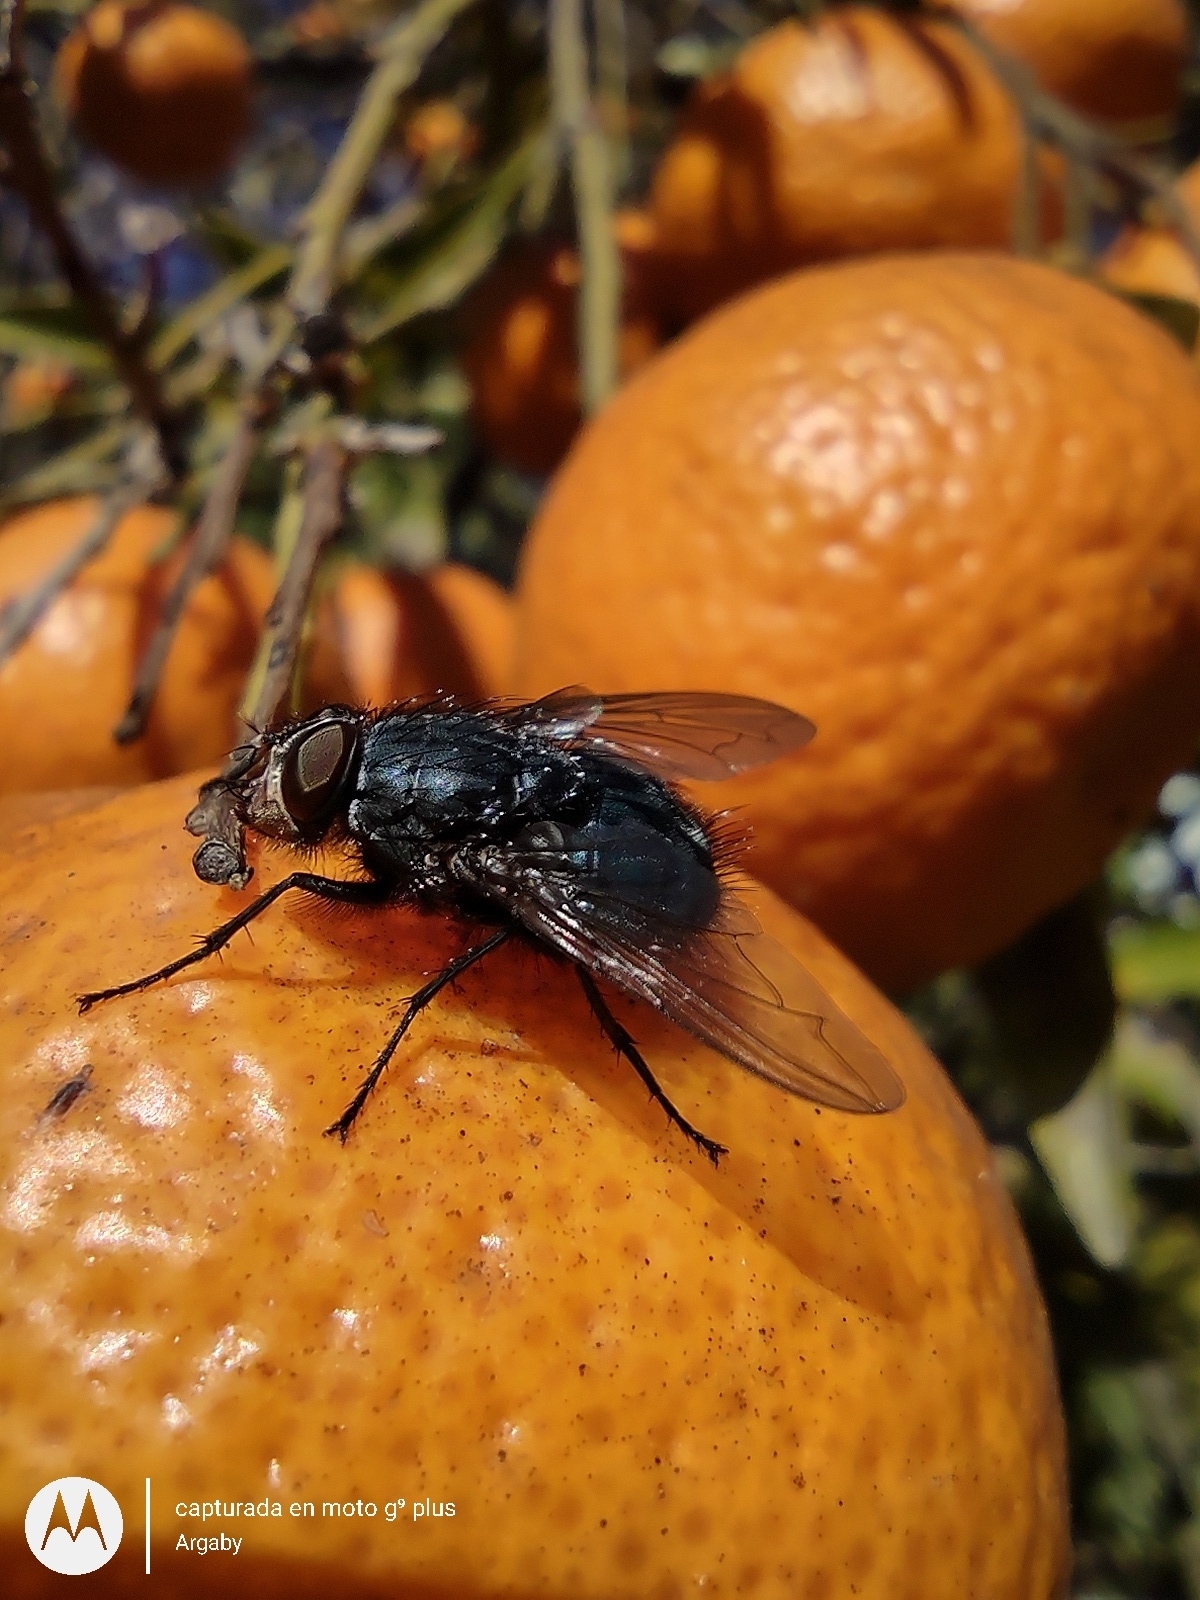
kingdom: Animalia
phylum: Arthropoda
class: Insecta
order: Diptera
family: Calliphoridae
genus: Calliphora
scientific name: Calliphora vicina
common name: Common blow flie
